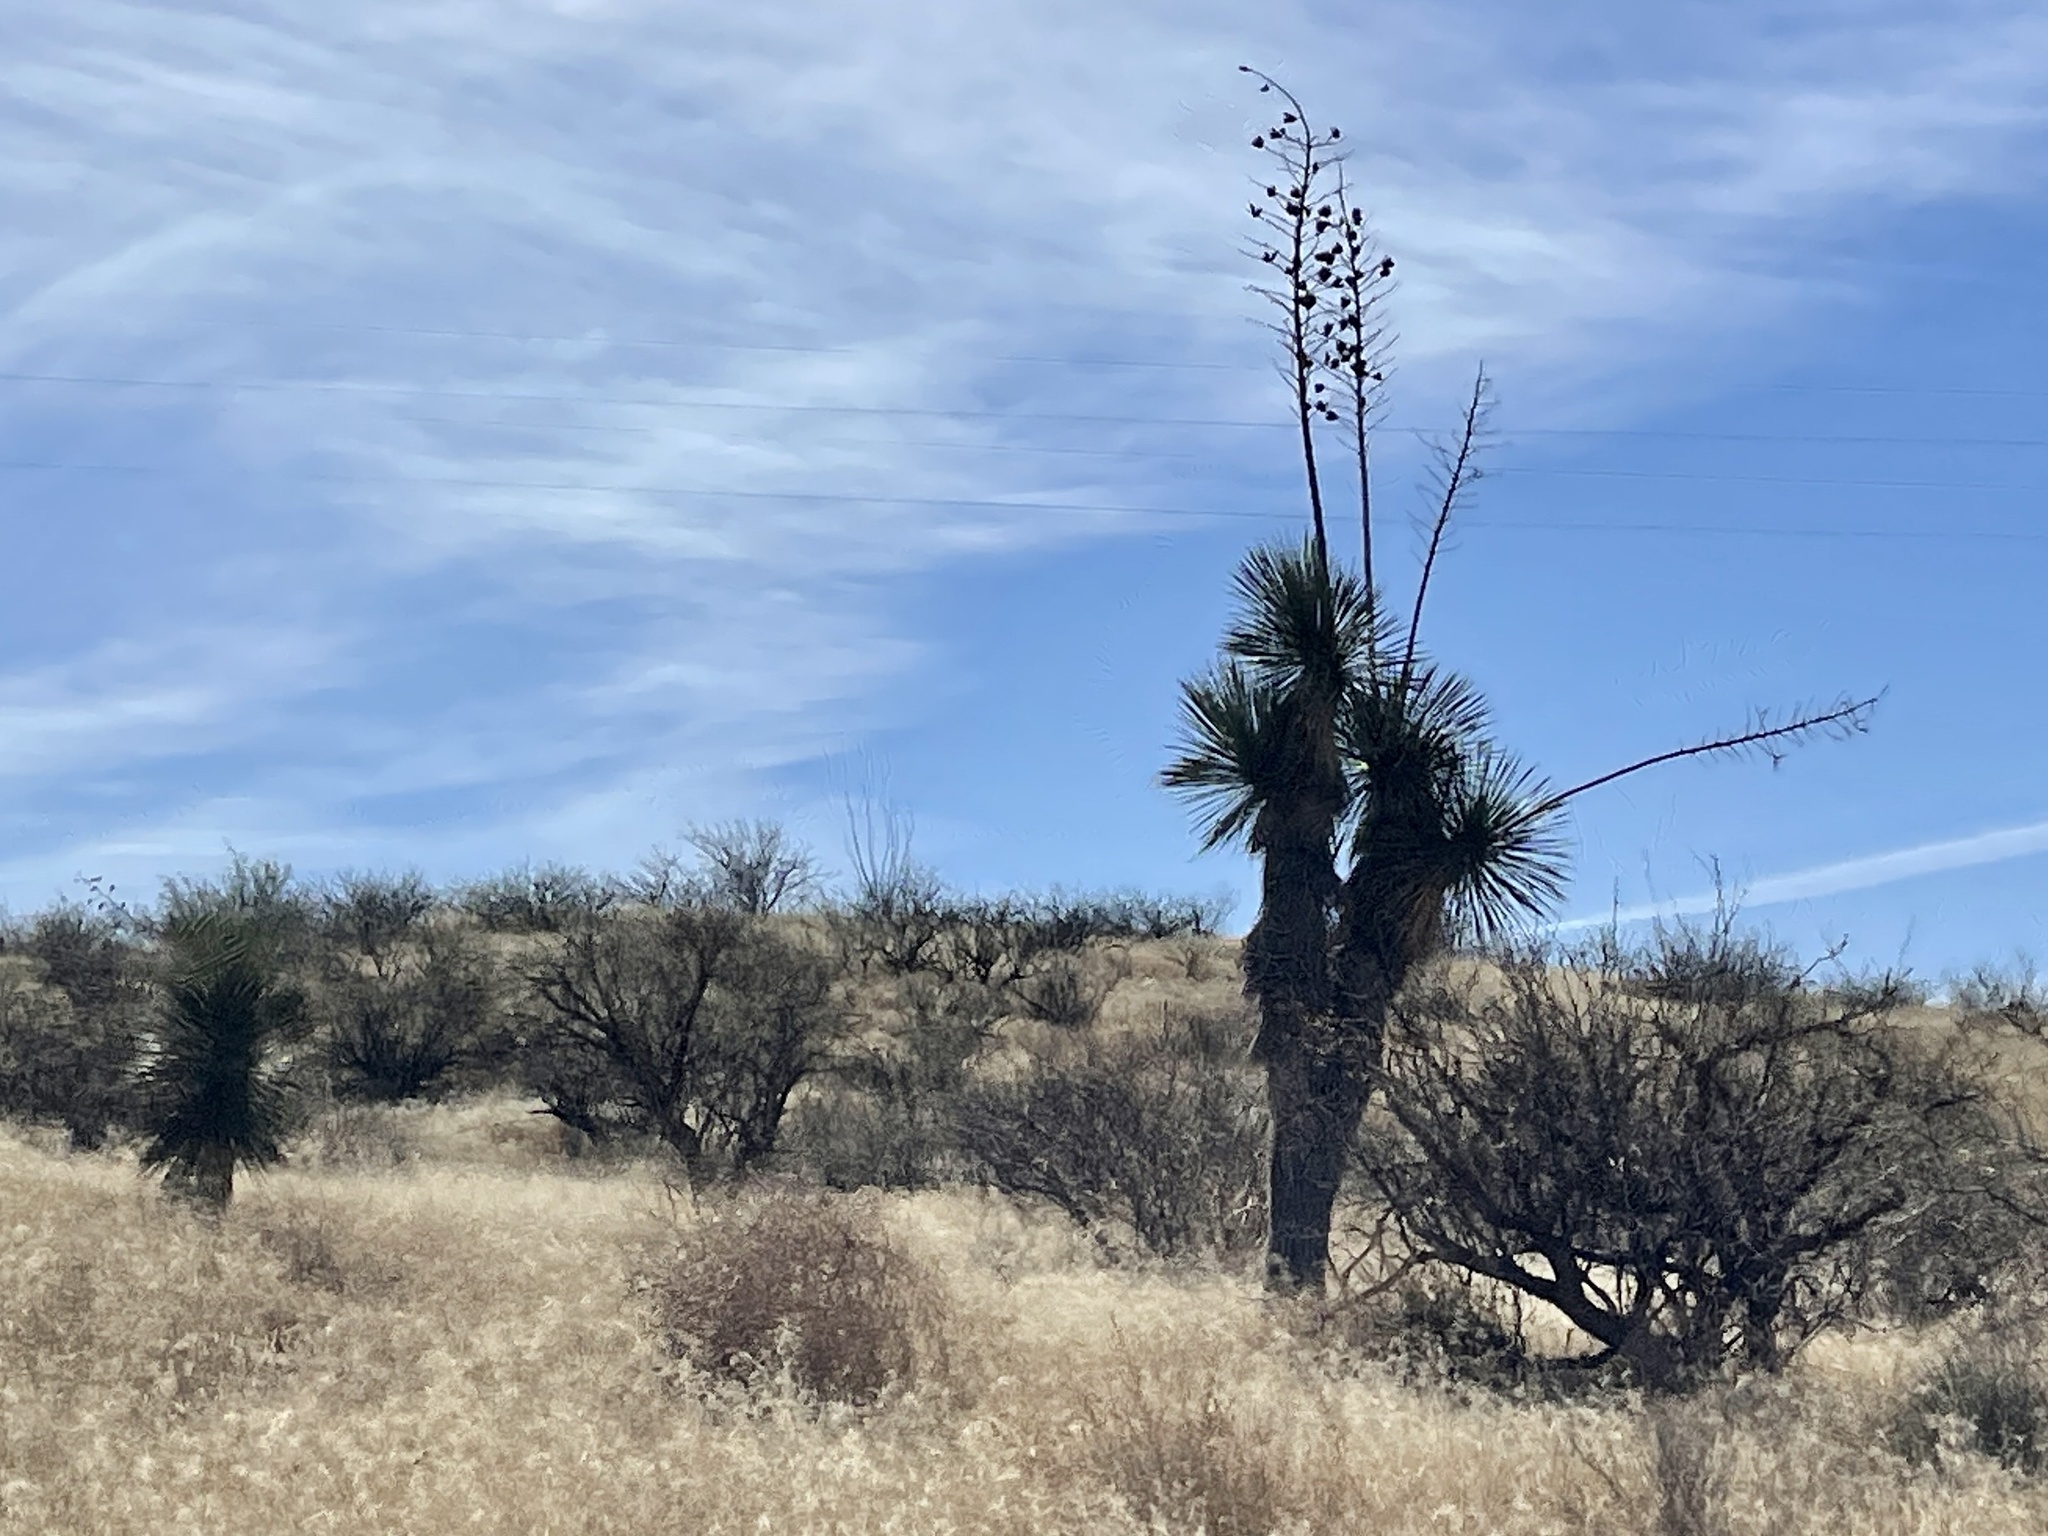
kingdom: Plantae
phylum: Tracheophyta
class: Liliopsida
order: Asparagales
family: Asparagaceae
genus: Yucca
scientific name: Yucca elata
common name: Palmella
